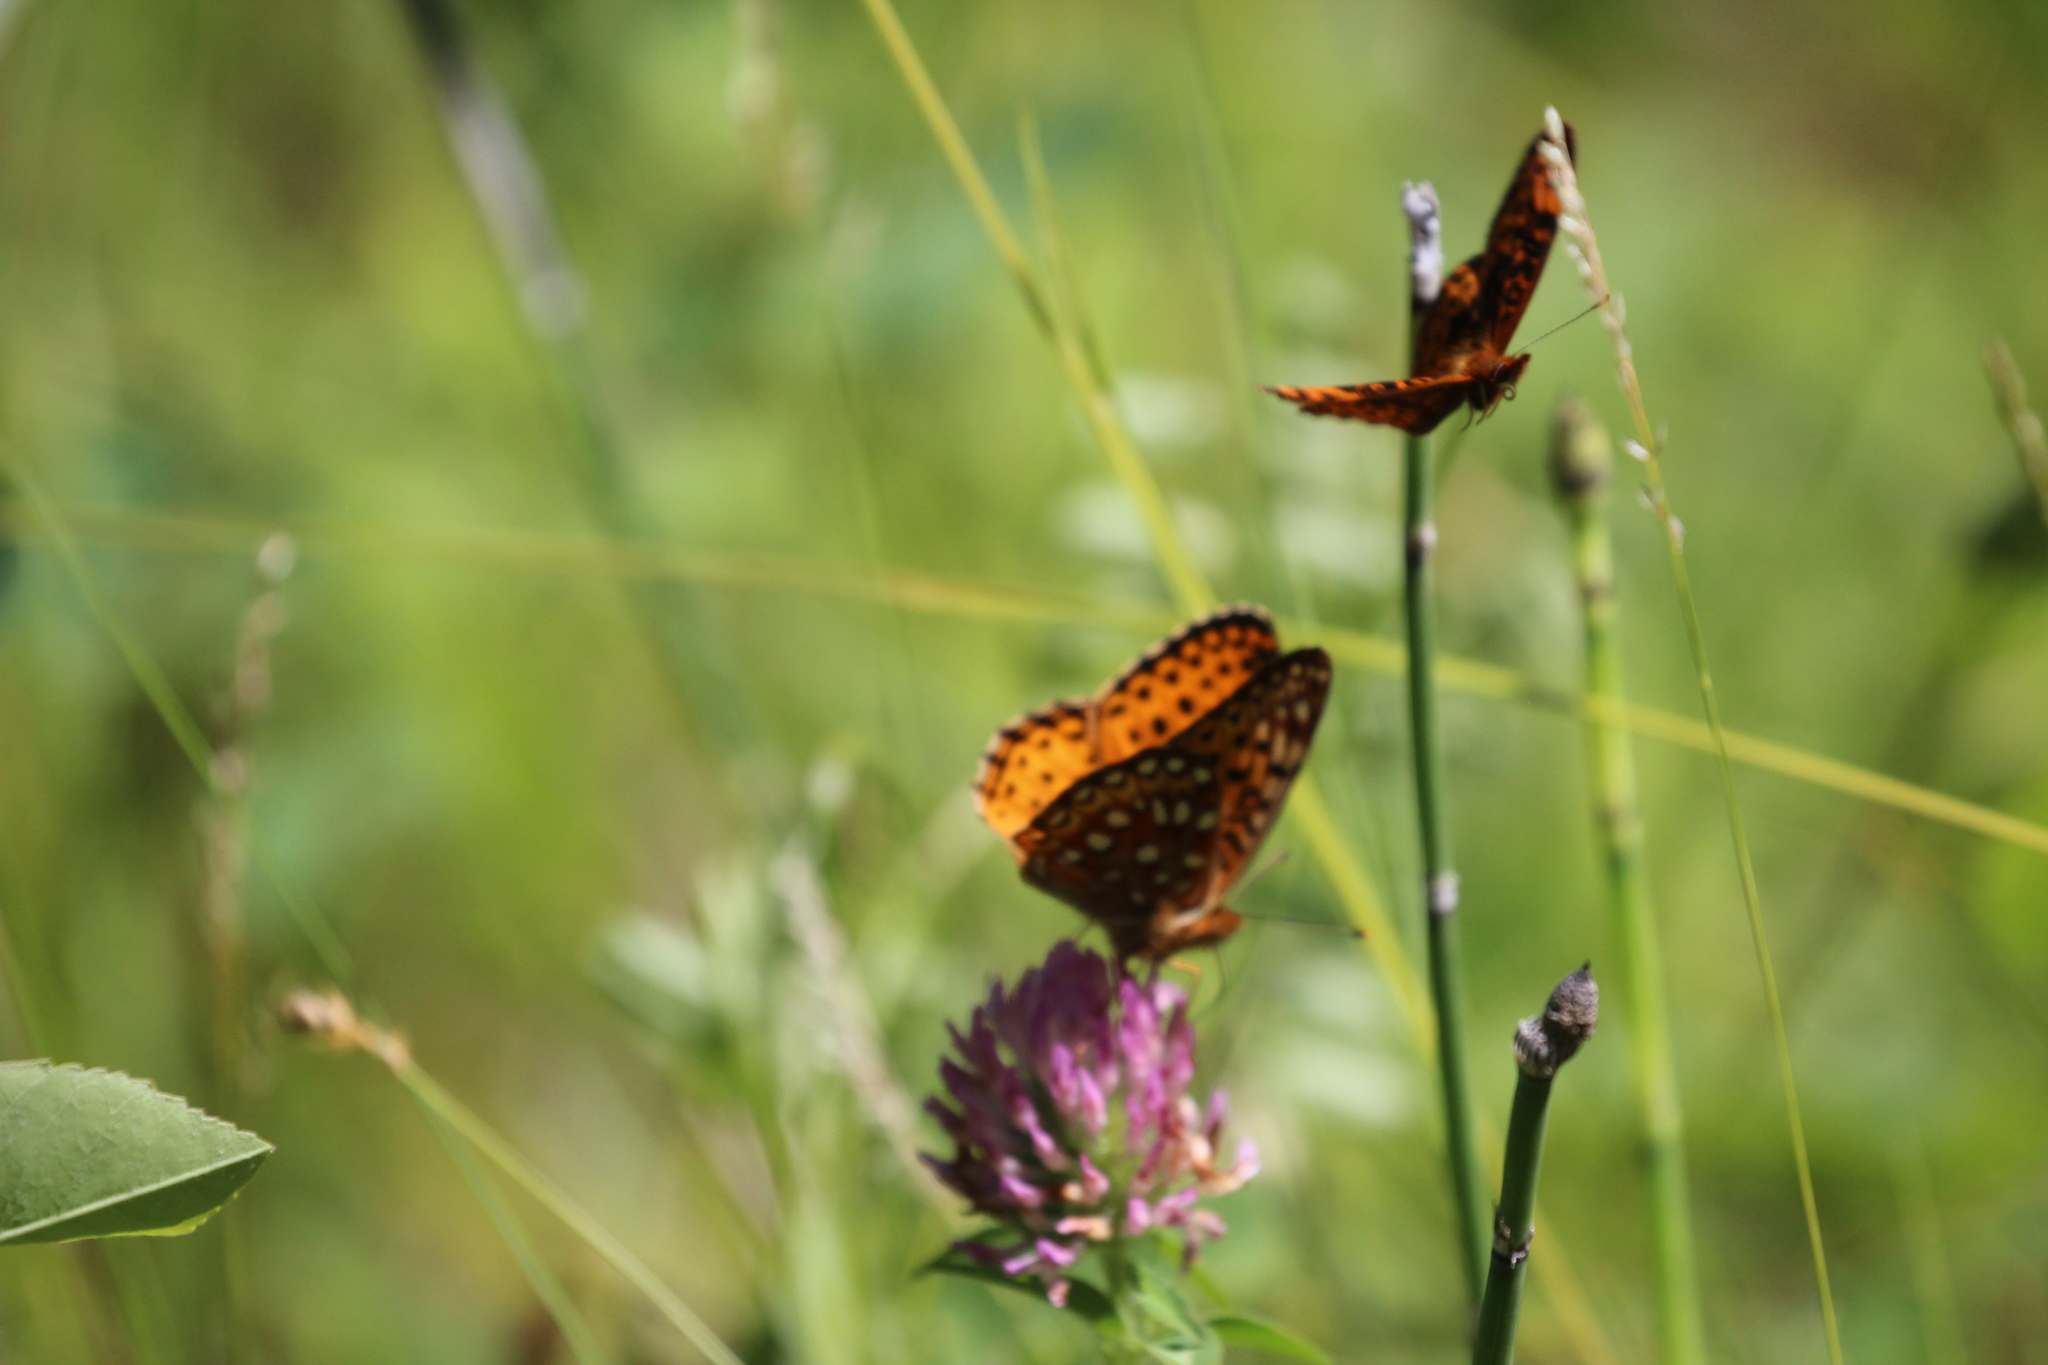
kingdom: Animalia
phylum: Arthropoda
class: Insecta
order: Lepidoptera
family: Nymphalidae
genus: Speyeria
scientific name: Speyeria aphrodite
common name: Aphrodite friitllary
